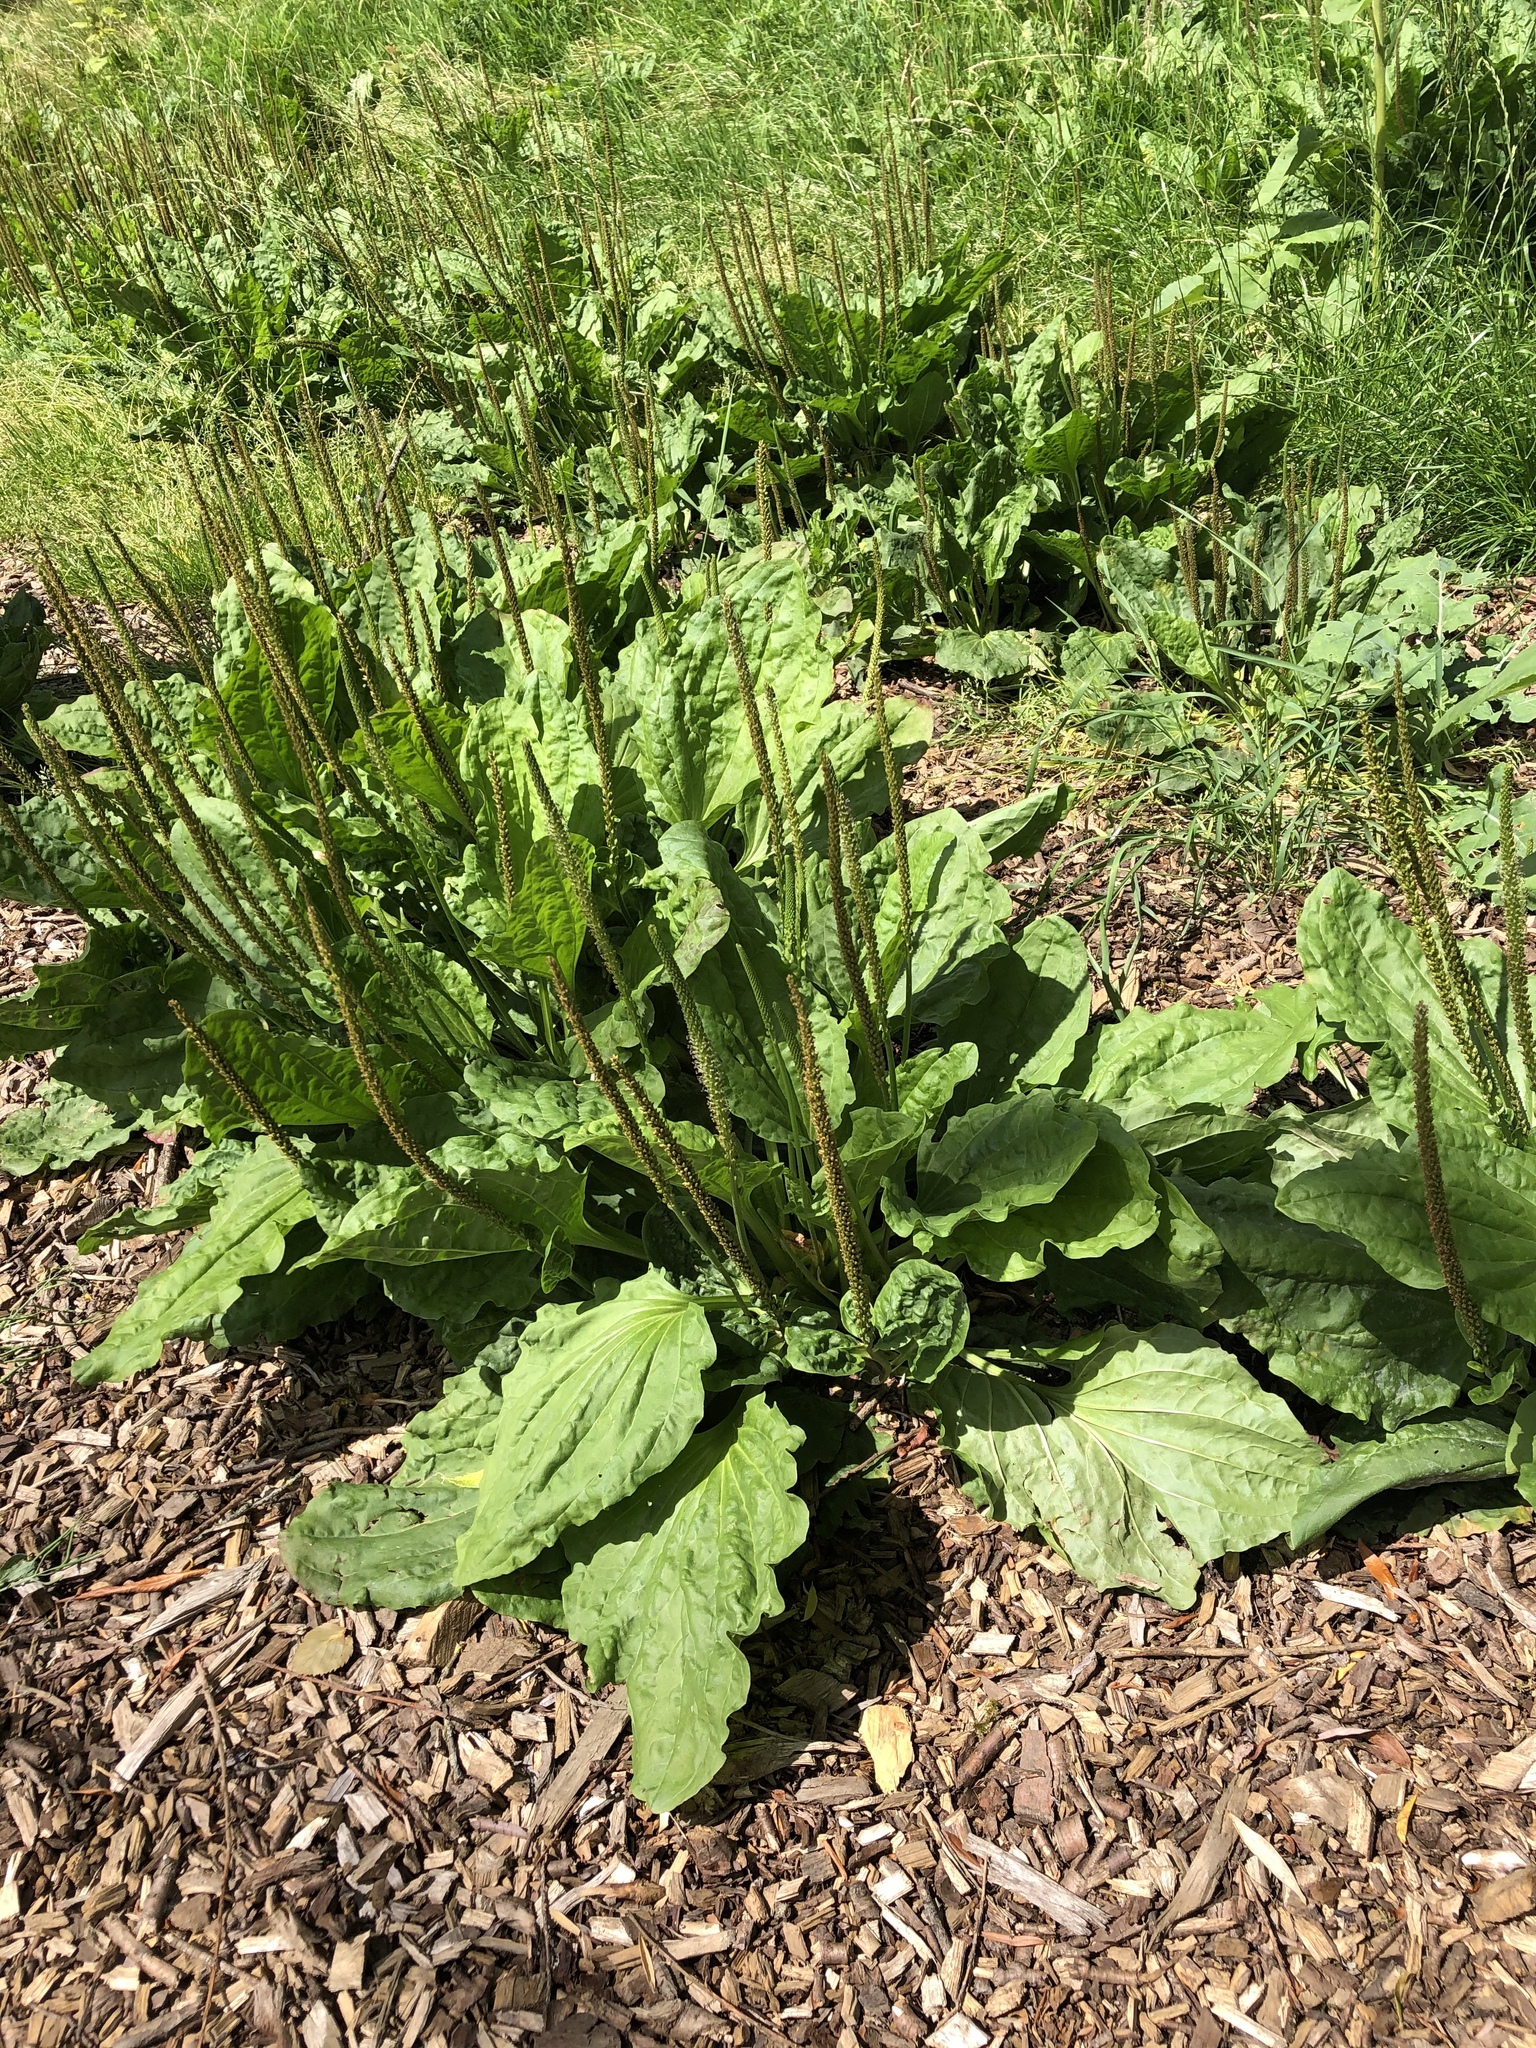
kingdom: Plantae
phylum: Tracheophyta
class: Magnoliopsida
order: Lamiales
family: Plantaginaceae
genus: Plantago
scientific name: Plantago major
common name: Common plantain
